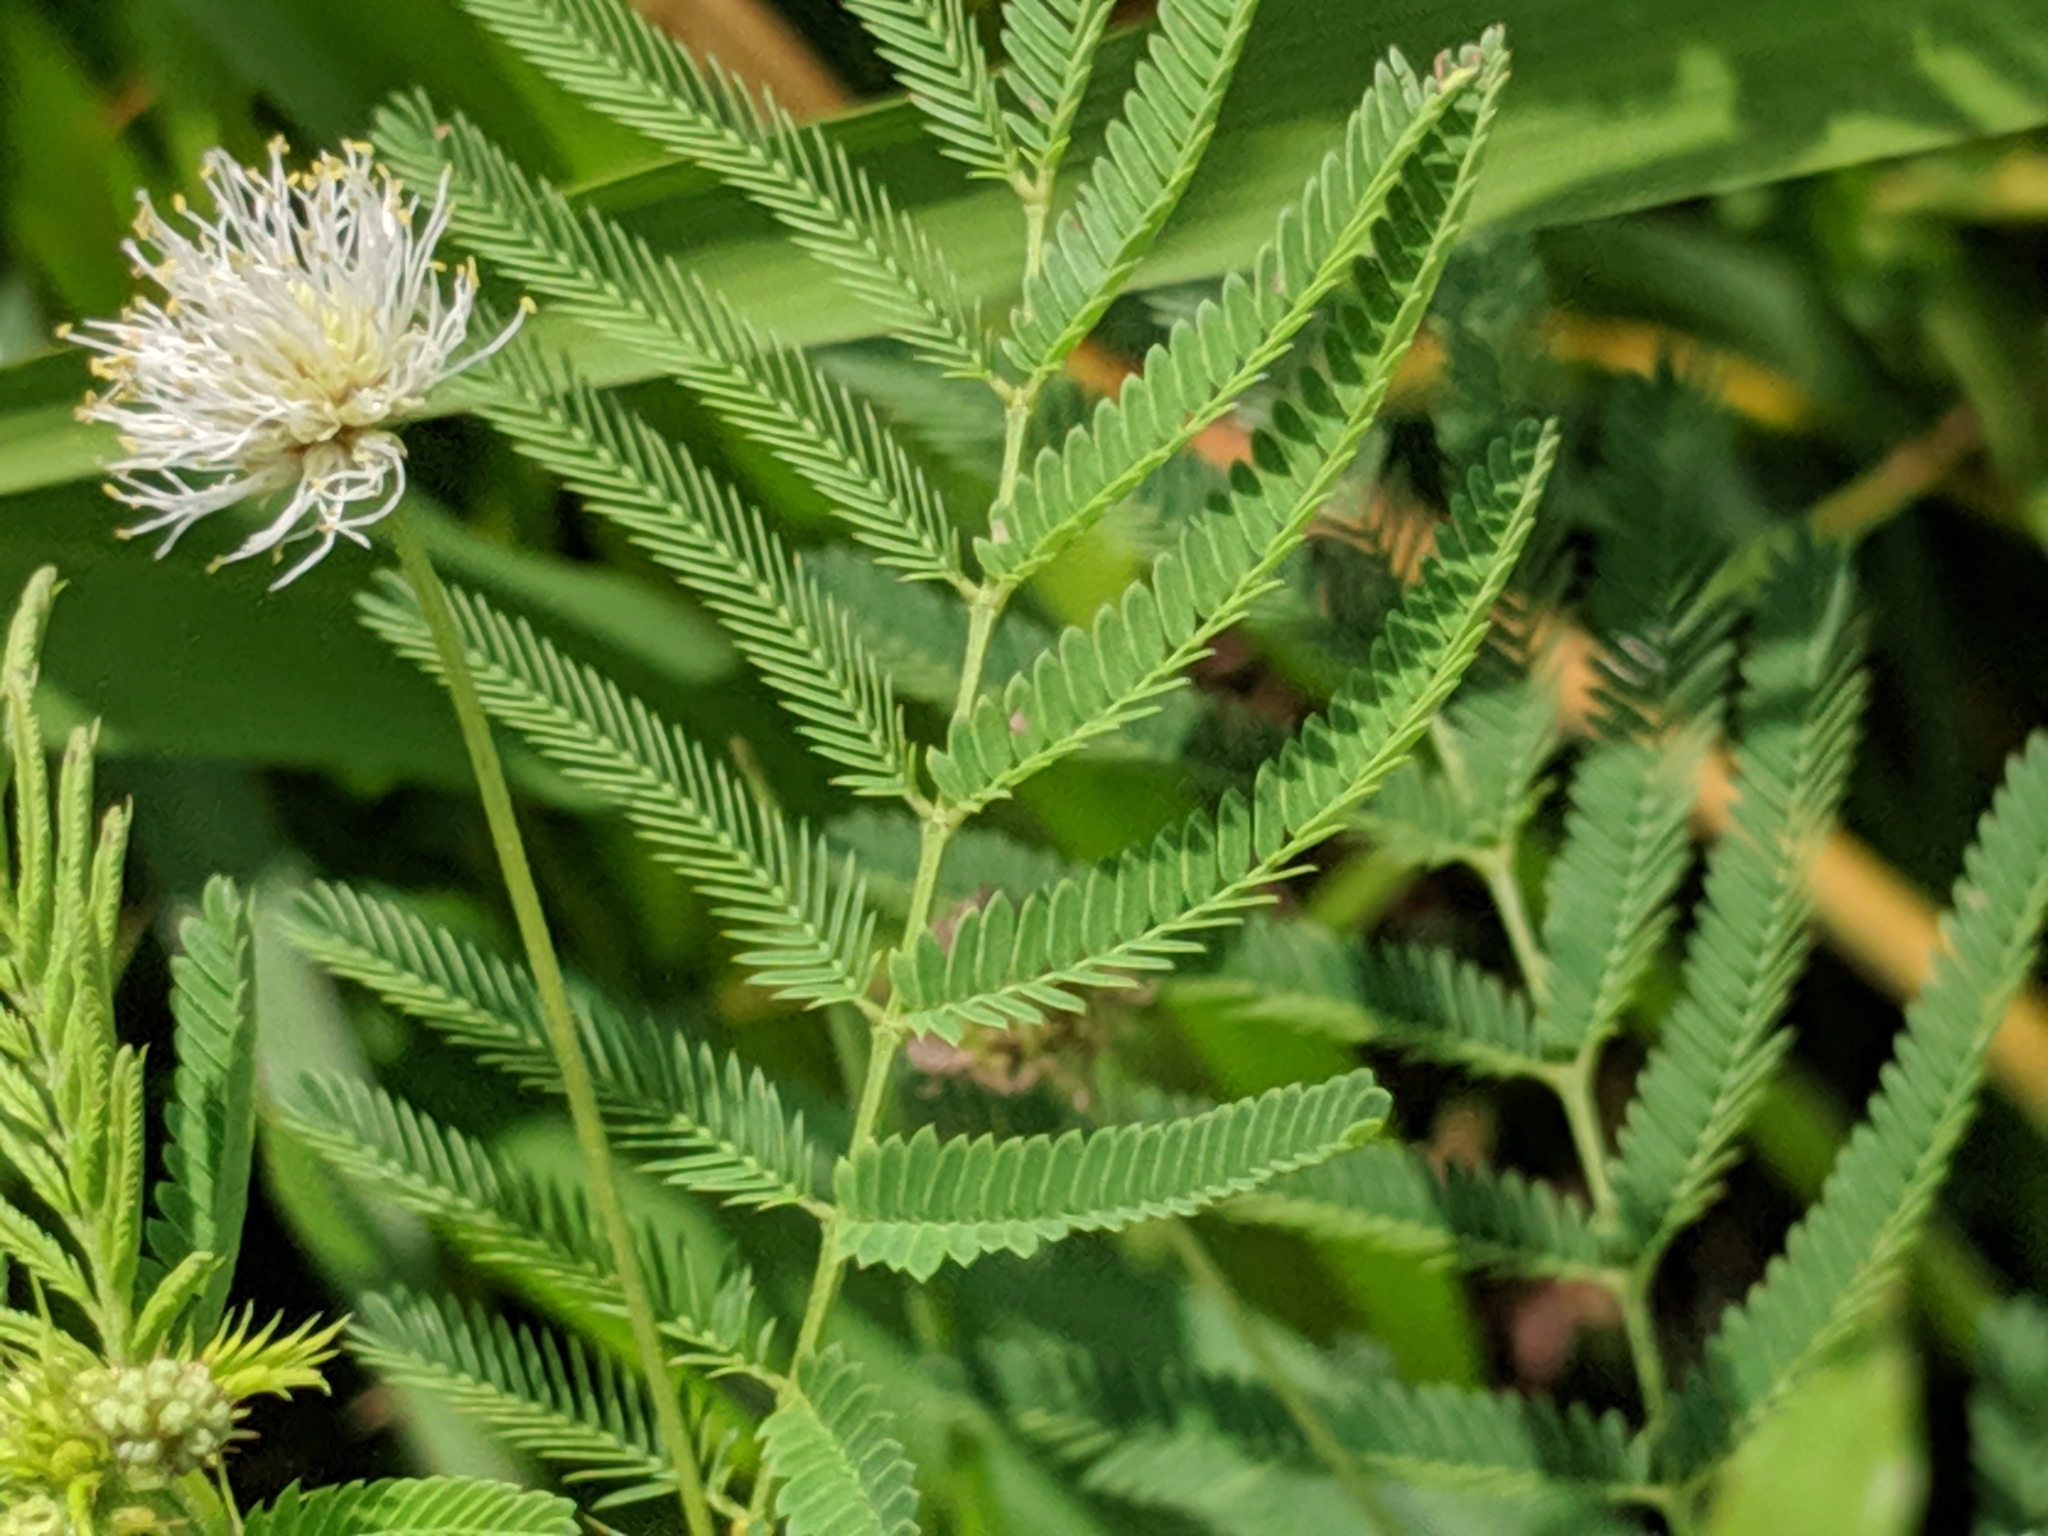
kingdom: Plantae
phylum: Tracheophyta
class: Magnoliopsida
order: Fabales
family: Fabaceae
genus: Desmanthus
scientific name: Desmanthus illinoensis
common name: Illinois bundle-flower
